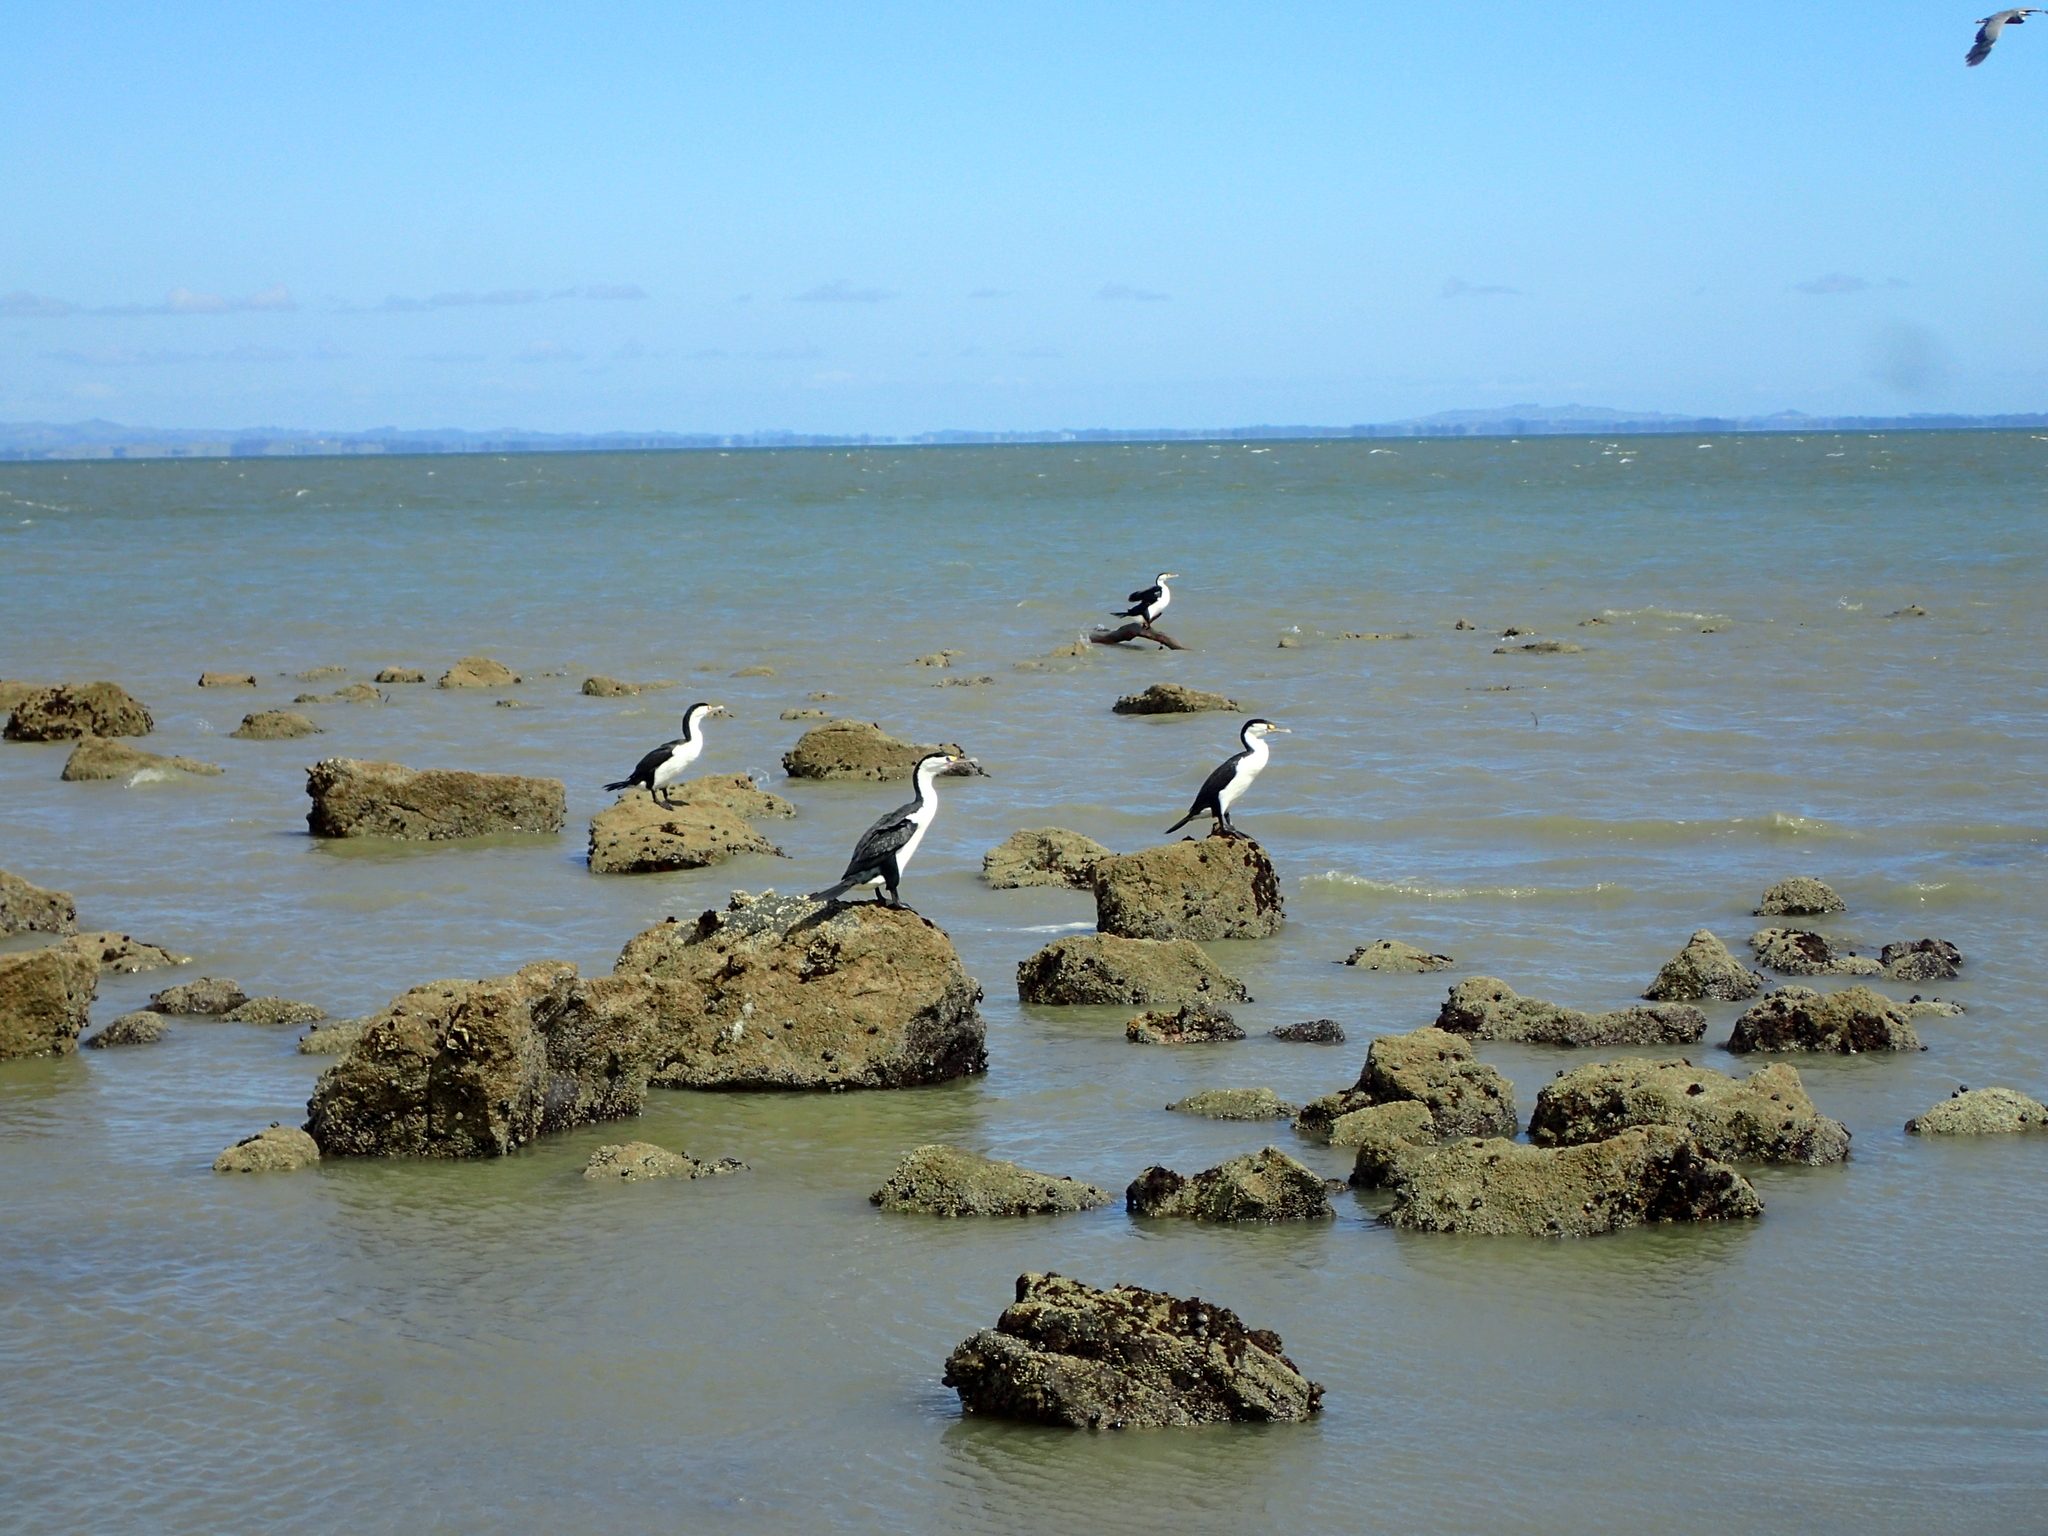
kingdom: Animalia
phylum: Chordata
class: Aves
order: Suliformes
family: Phalacrocoracidae
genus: Phalacrocorax
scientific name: Phalacrocorax varius
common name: Pied cormorant
